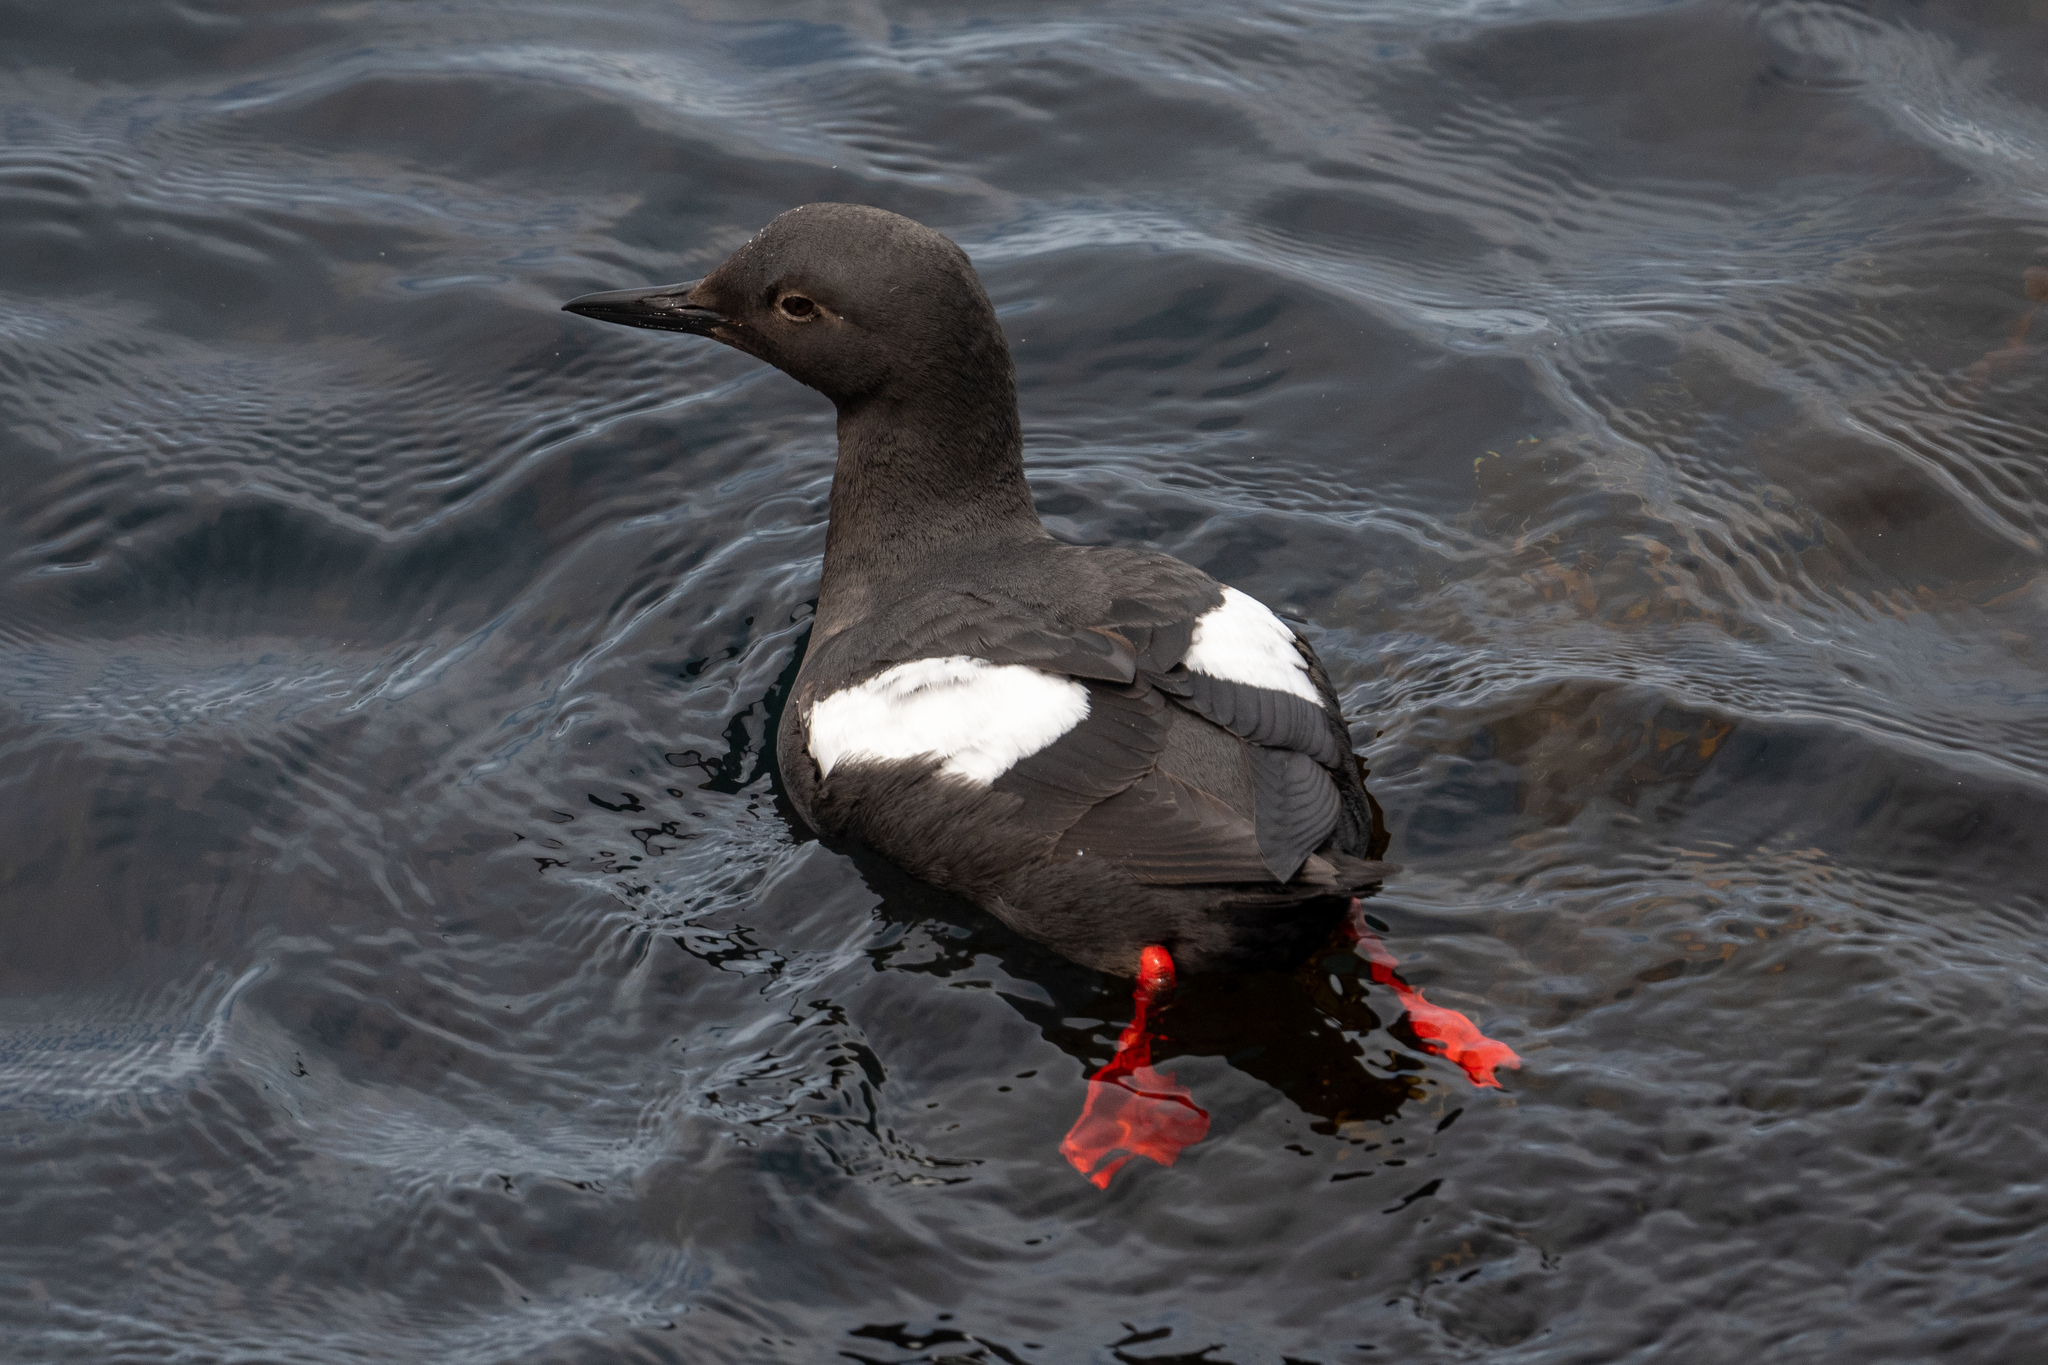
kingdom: Animalia
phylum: Chordata
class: Aves
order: Charadriiformes
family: Alcidae
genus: Cepphus
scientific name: Cepphus columba
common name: Pigeon guillemot
